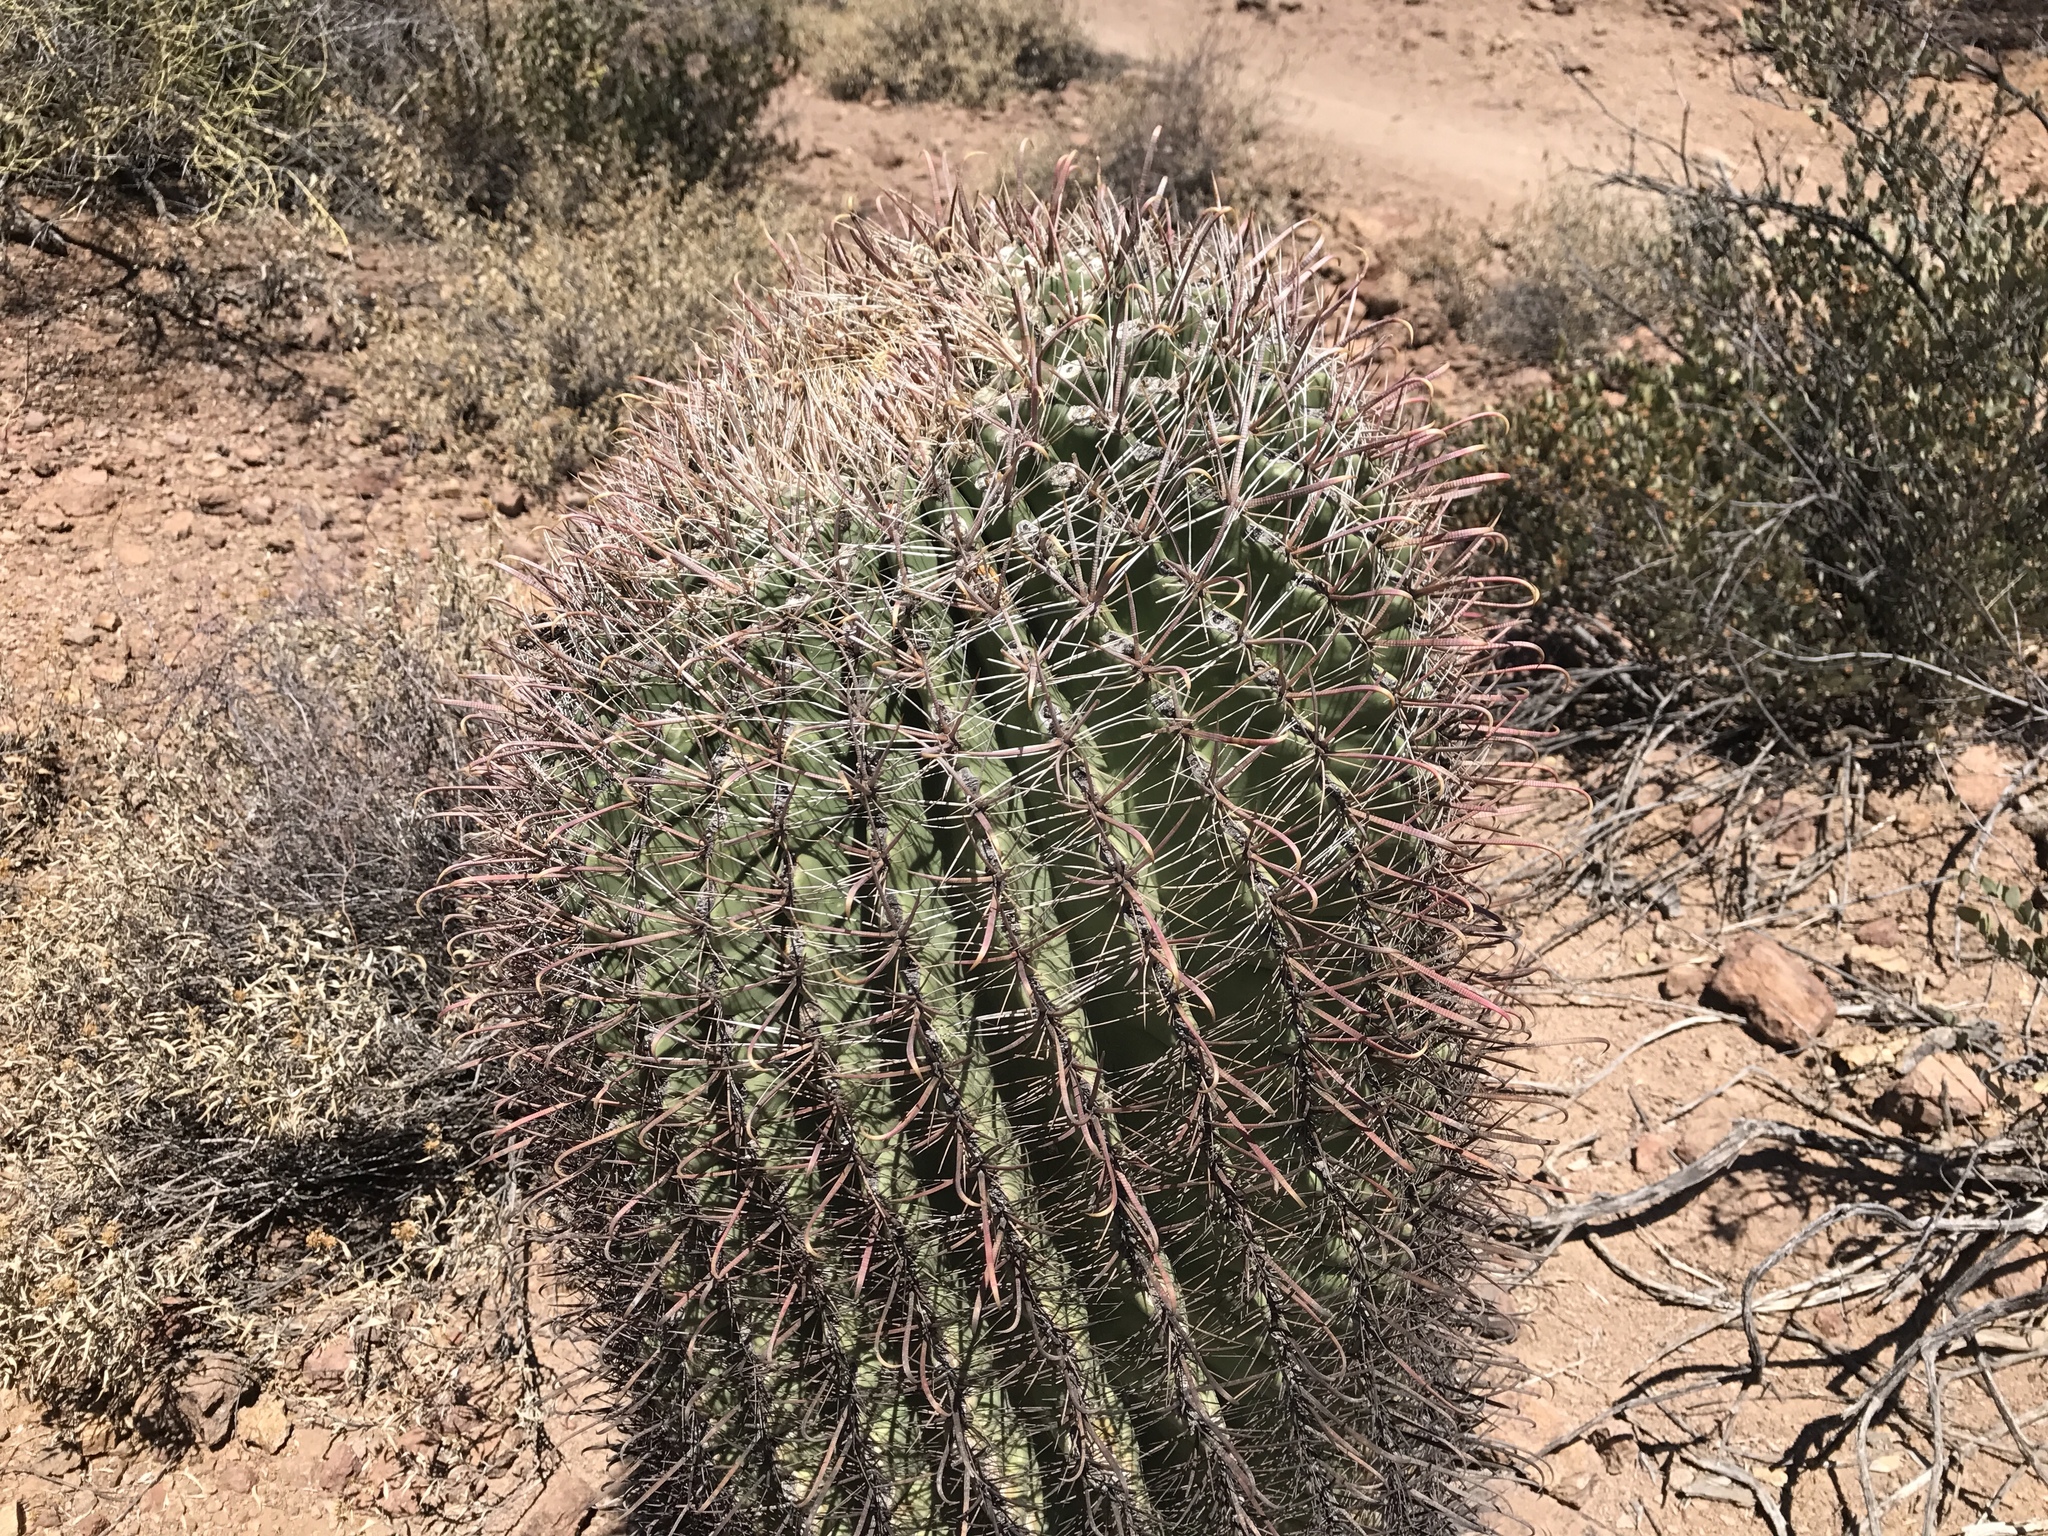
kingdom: Plantae
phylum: Tracheophyta
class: Magnoliopsida
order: Caryophyllales
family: Cactaceae
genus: Ferocactus
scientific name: Ferocactus wislizeni
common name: Candy barrel cactus
